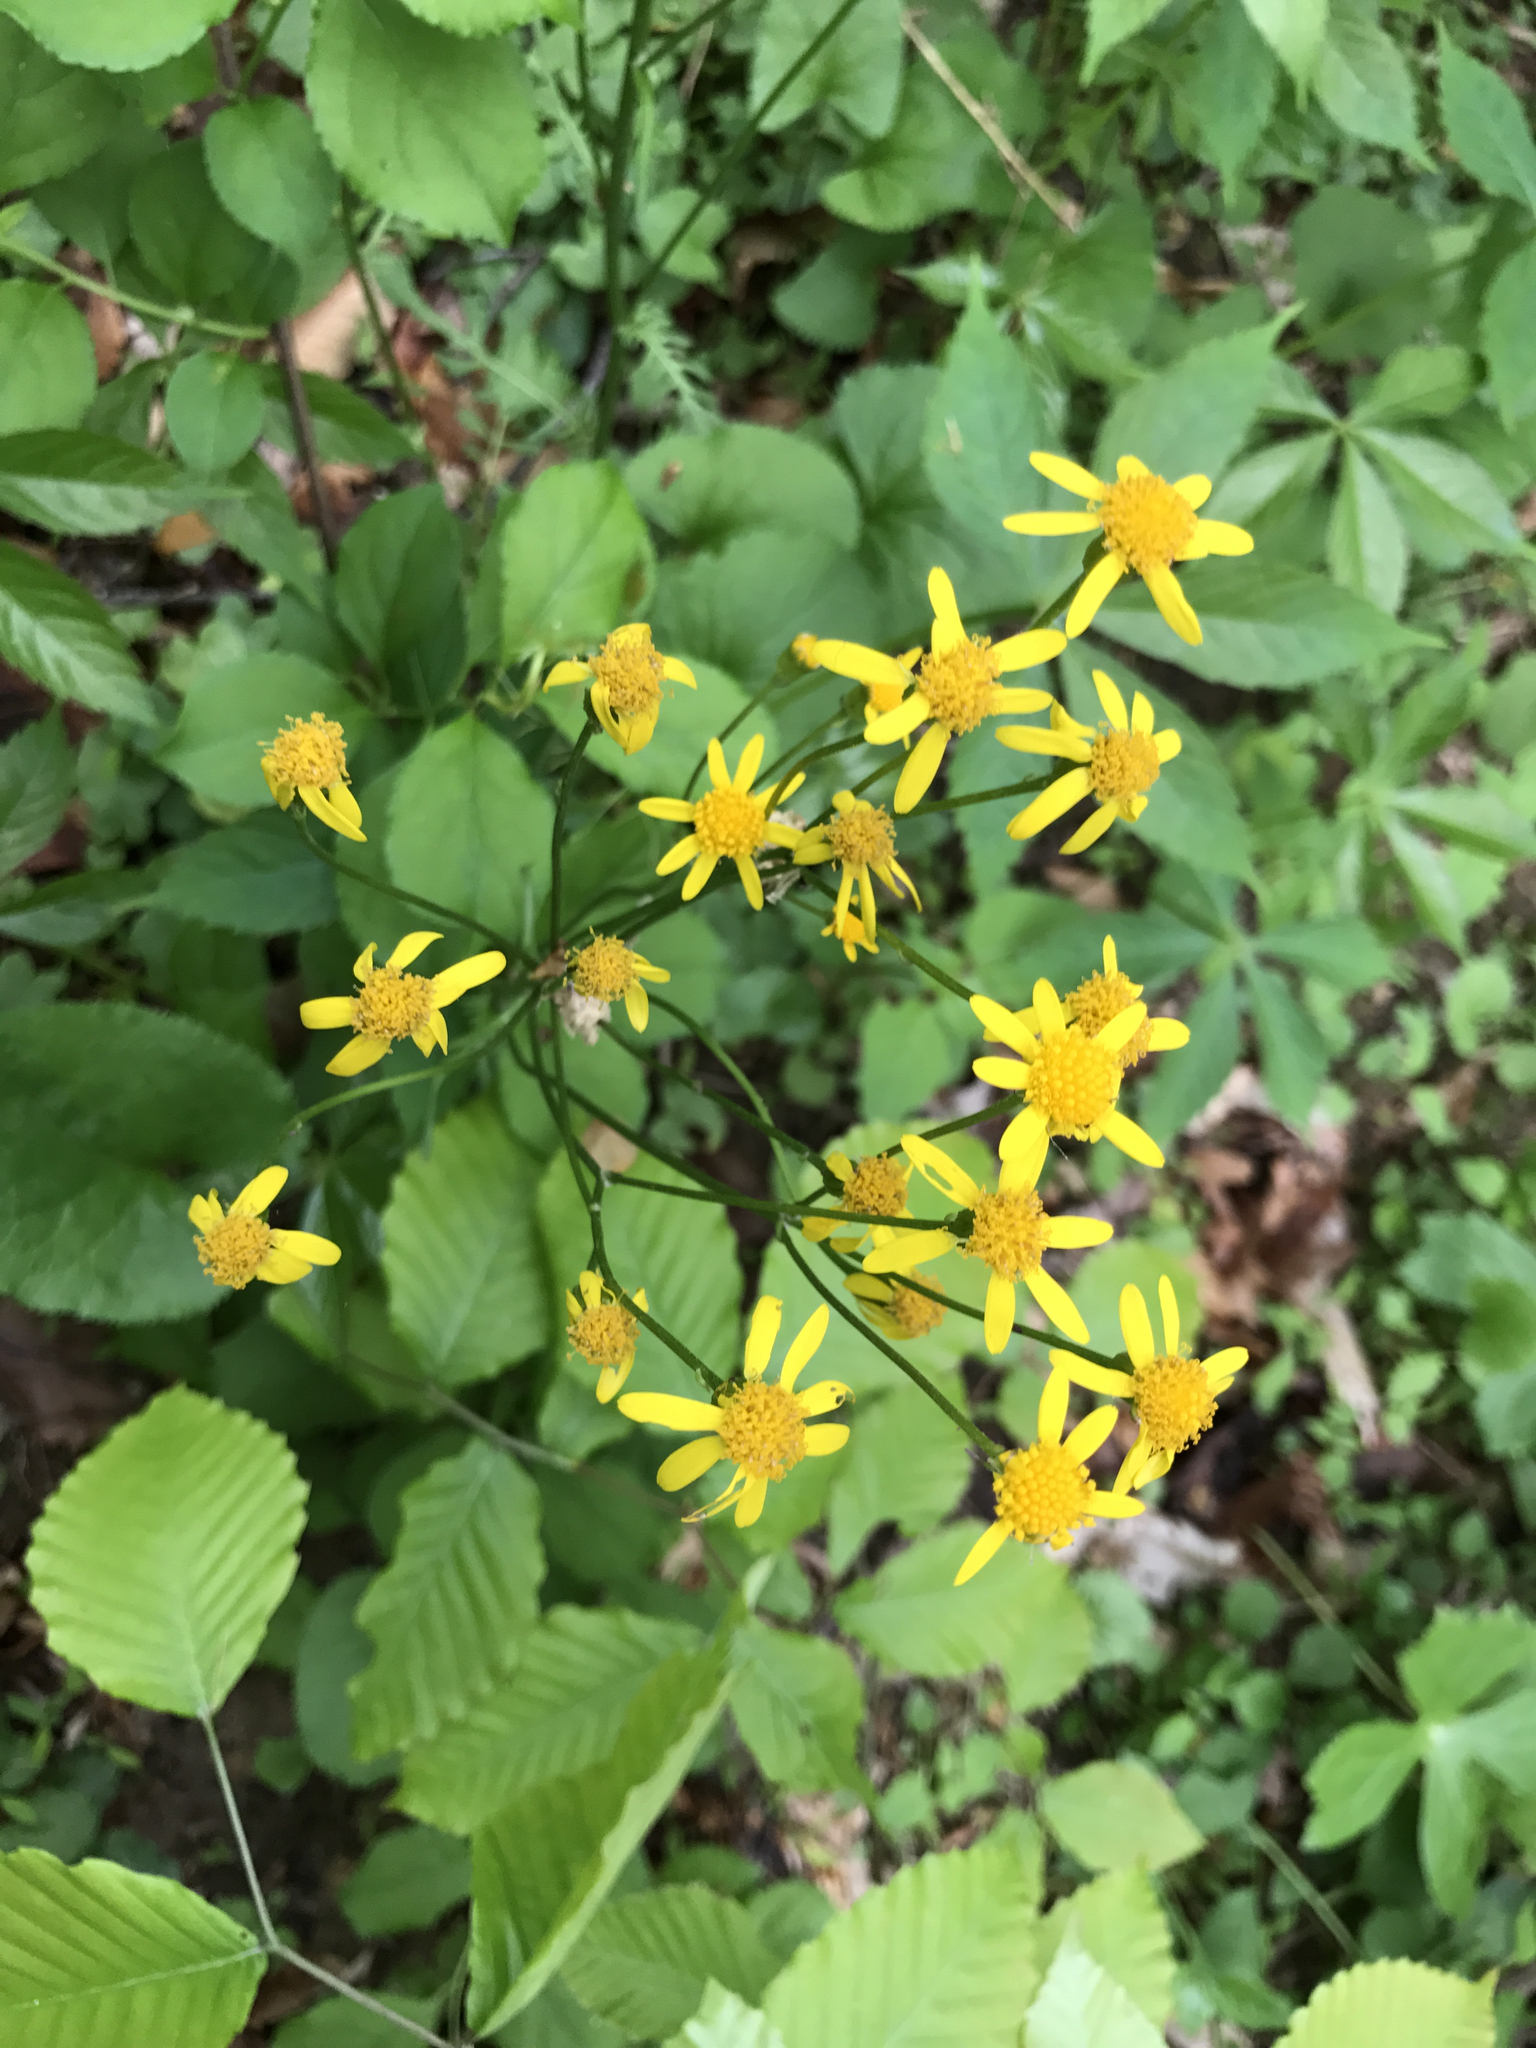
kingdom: Plantae
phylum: Tracheophyta
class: Magnoliopsida
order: Asterales
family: Asteraceae
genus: Packera
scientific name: Packera aurea
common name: Golden groundsel
